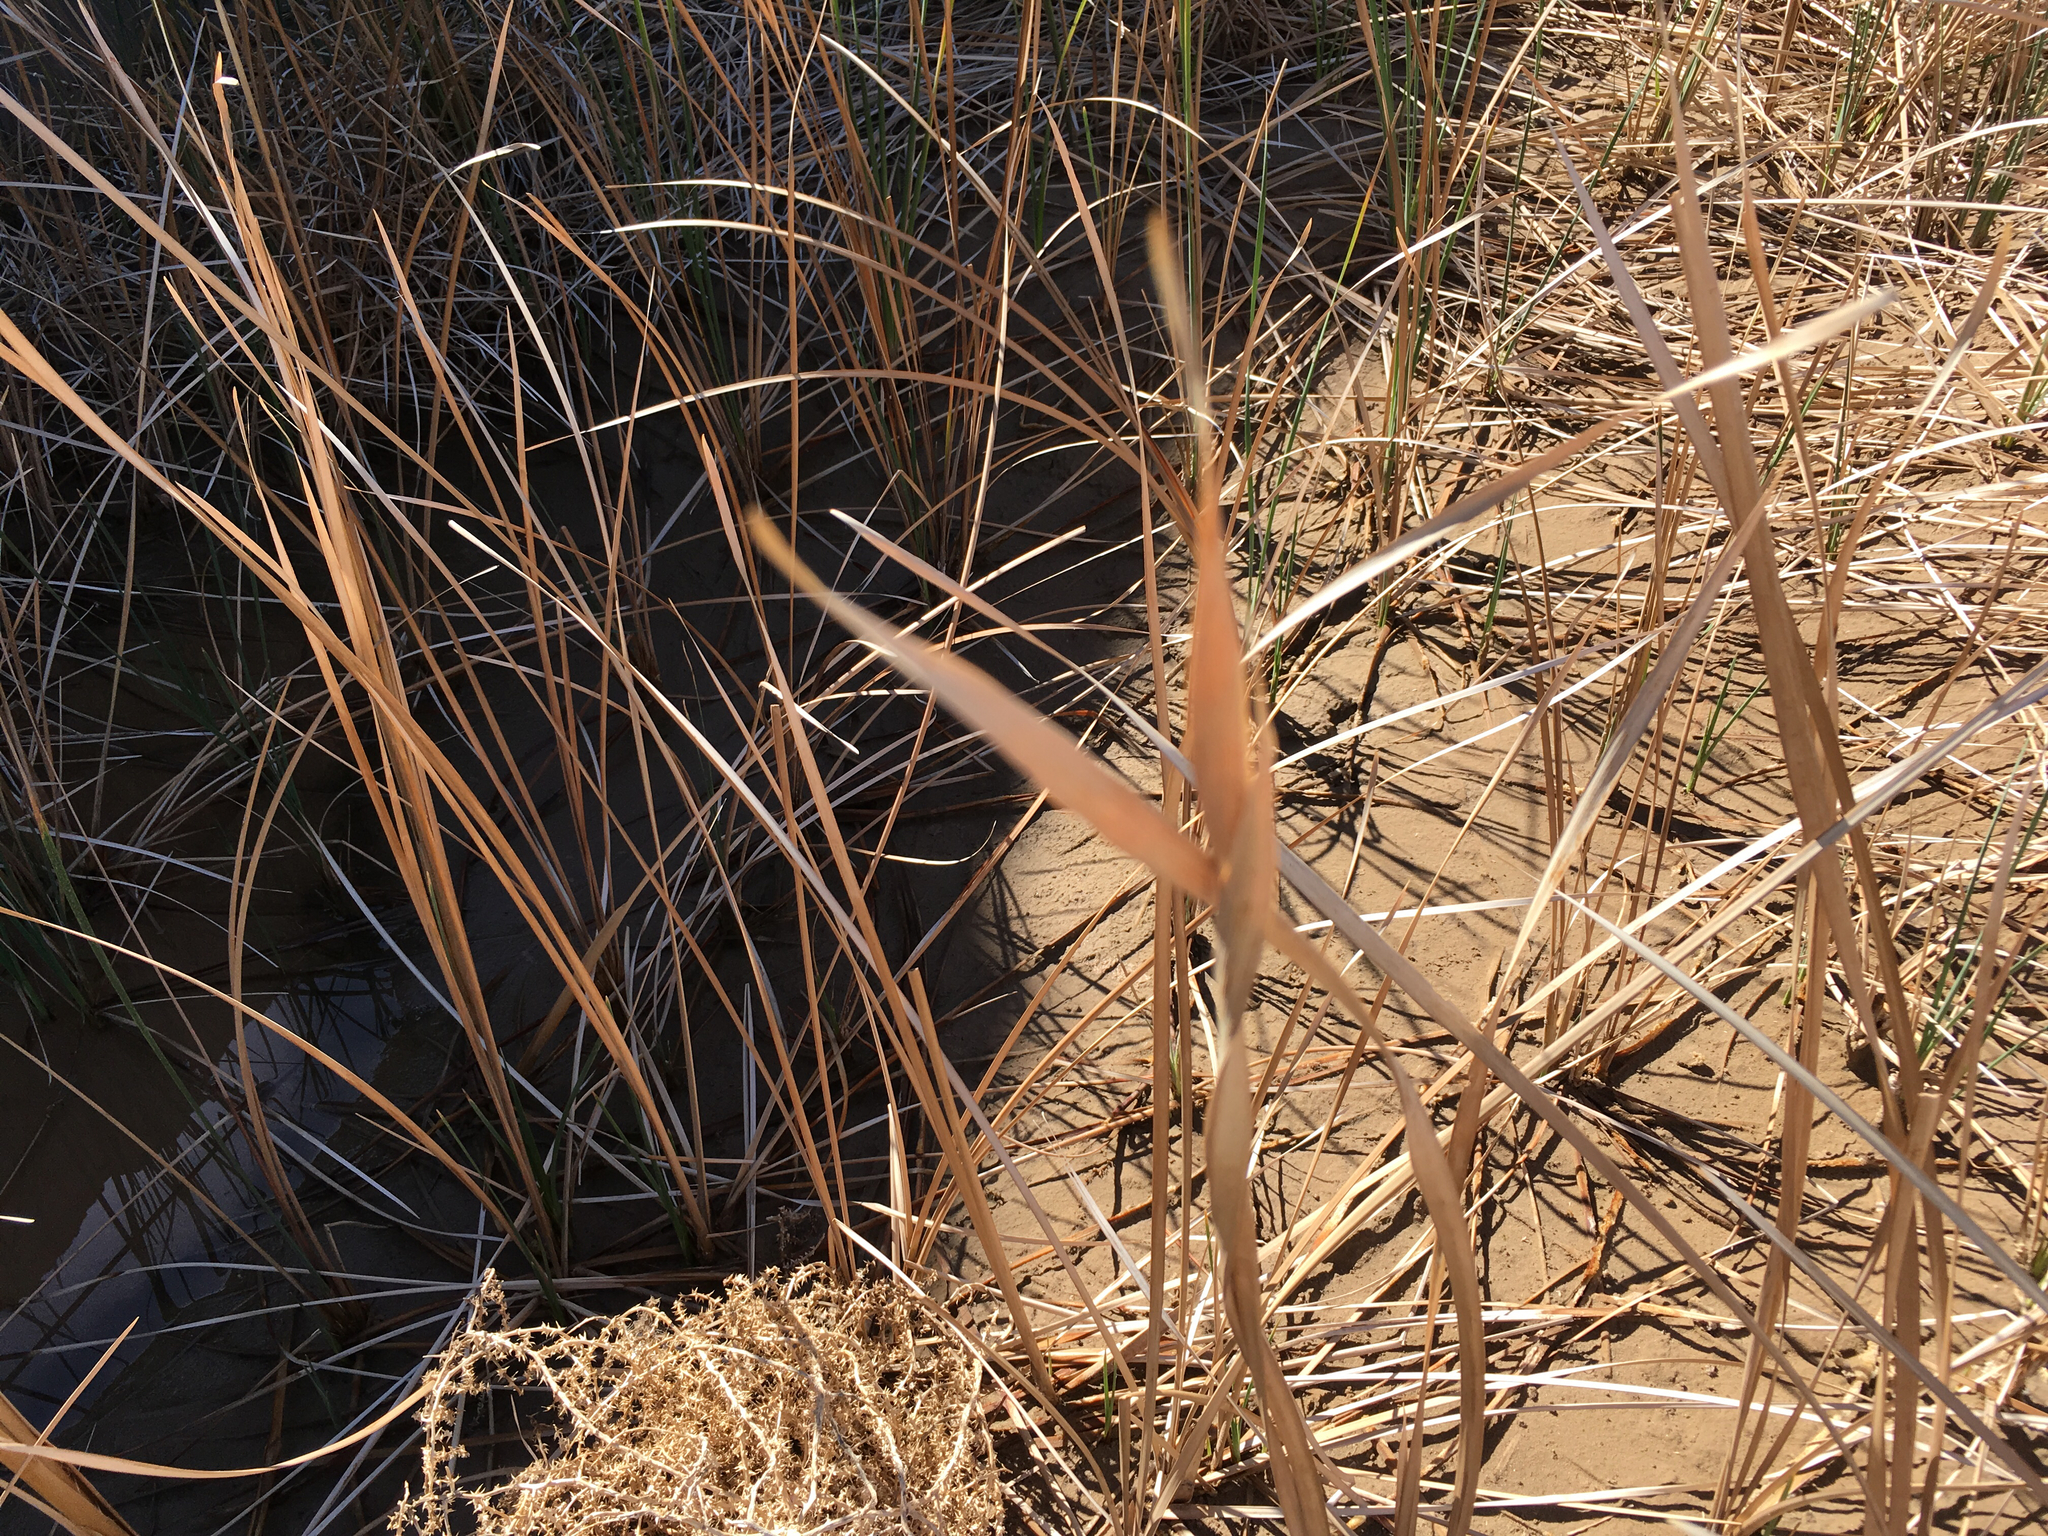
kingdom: Plantae
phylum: Tracheophyta
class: Liliopsida
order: Poales
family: Typhaceae
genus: Typha
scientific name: Typha domingensis
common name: Southern cattail
